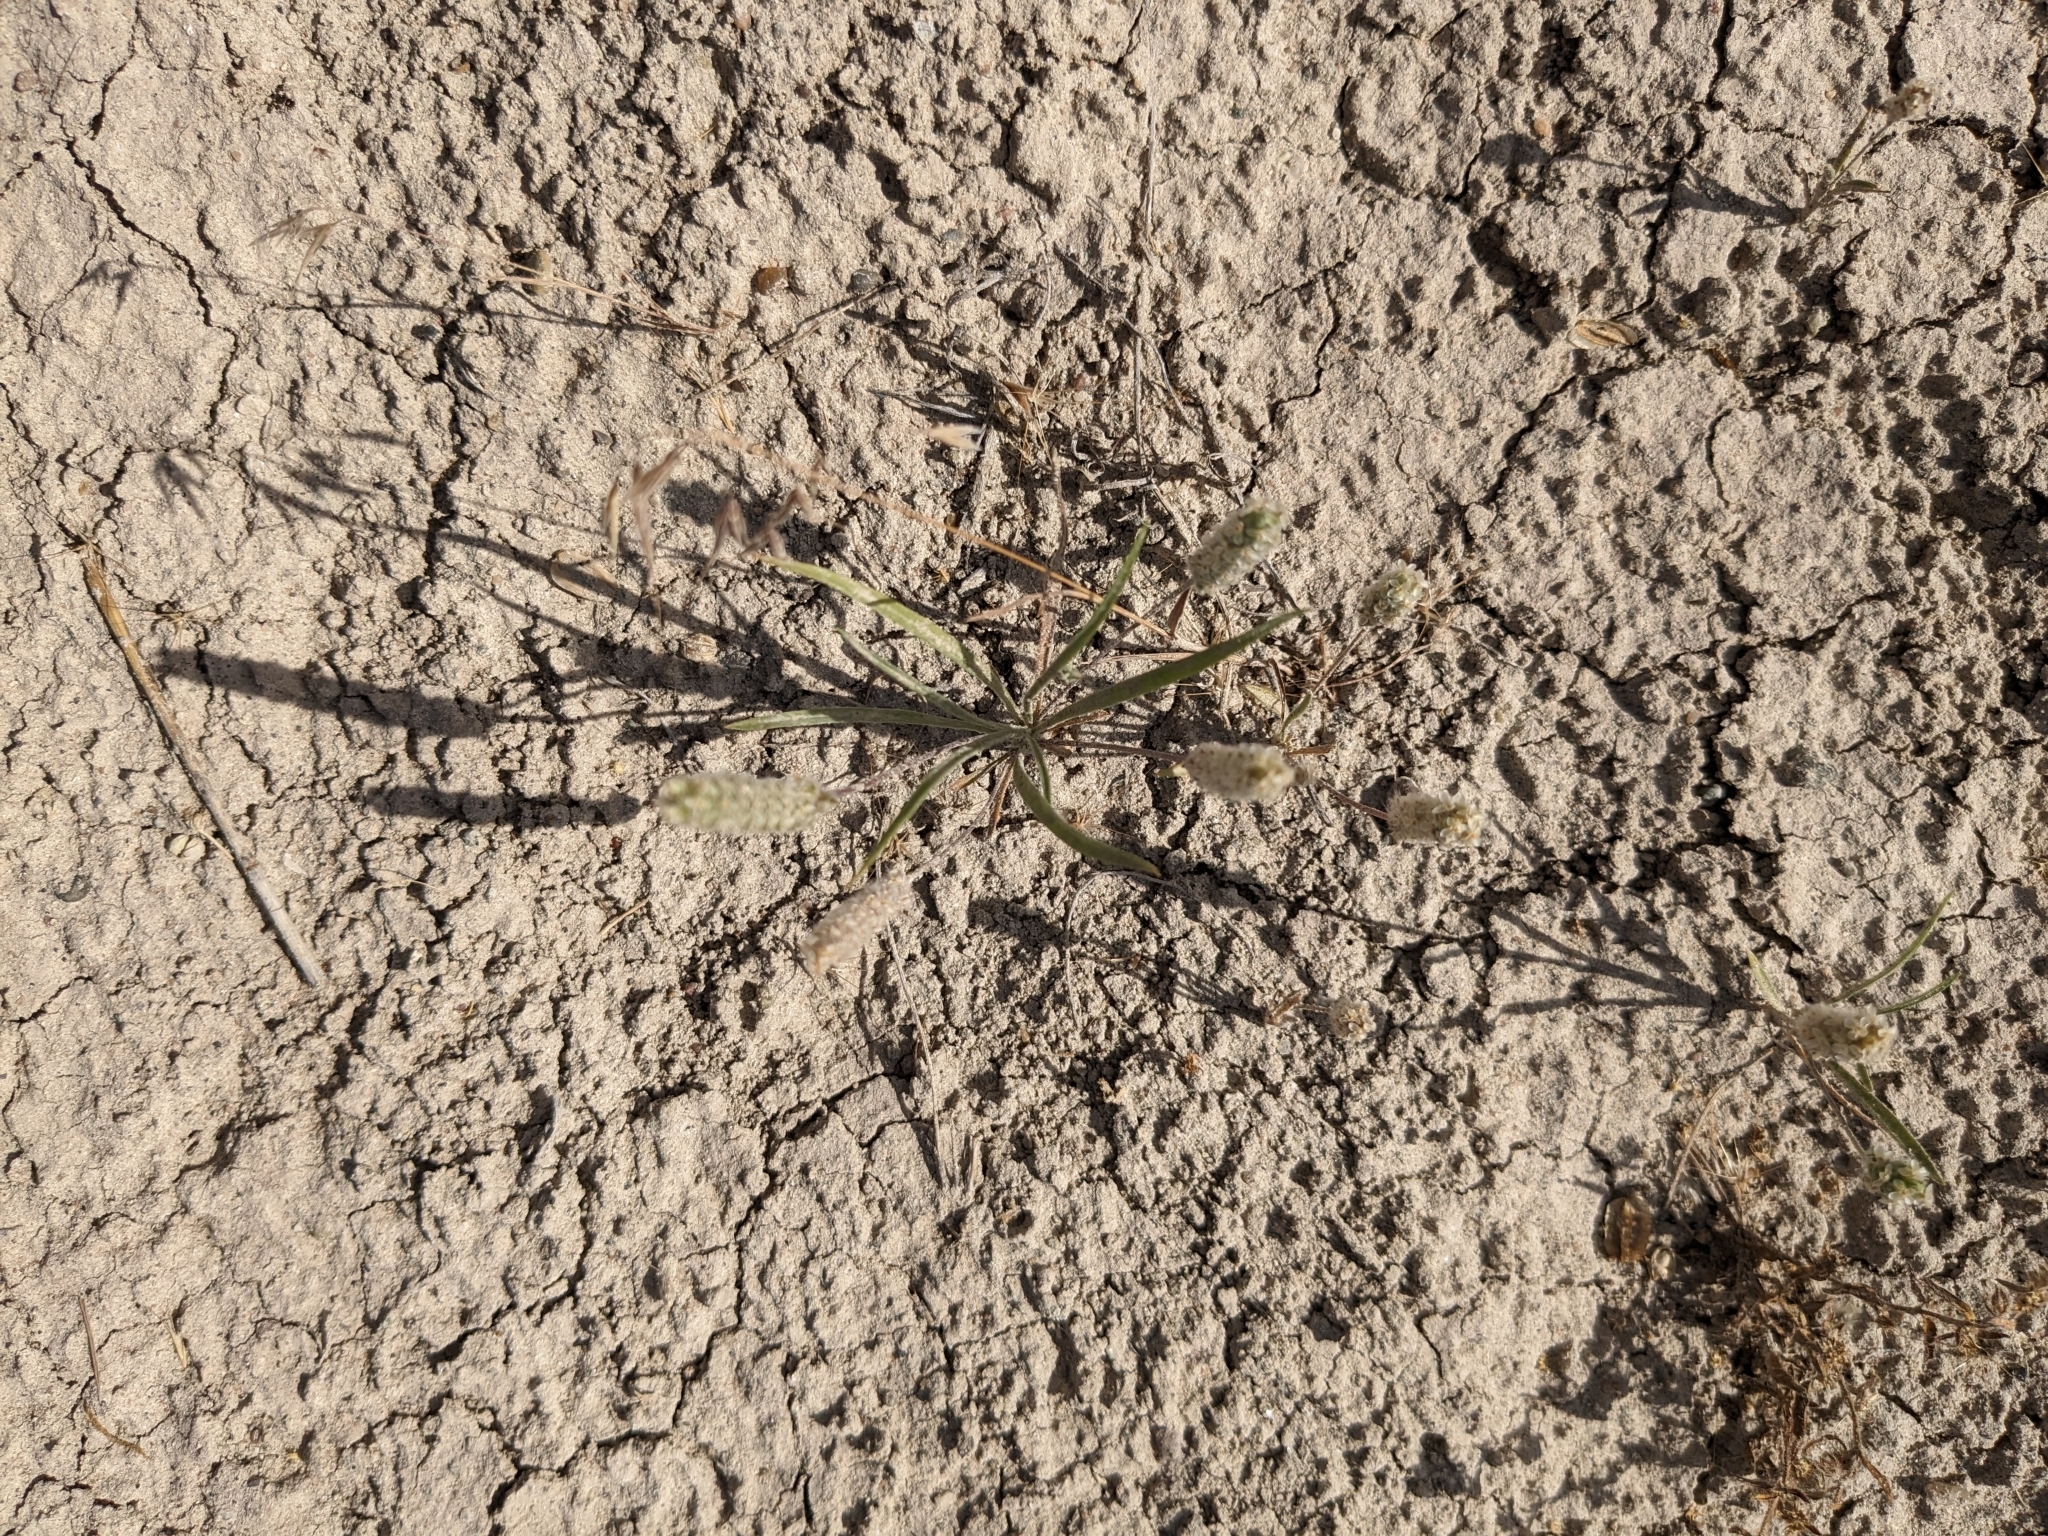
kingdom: Plantae
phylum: Tracheophyta
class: Magnoliopsida
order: Lamiales
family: Plantaginaceae
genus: Plantago
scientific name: Plantago patagonica
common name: Patagonia indian-wheat
